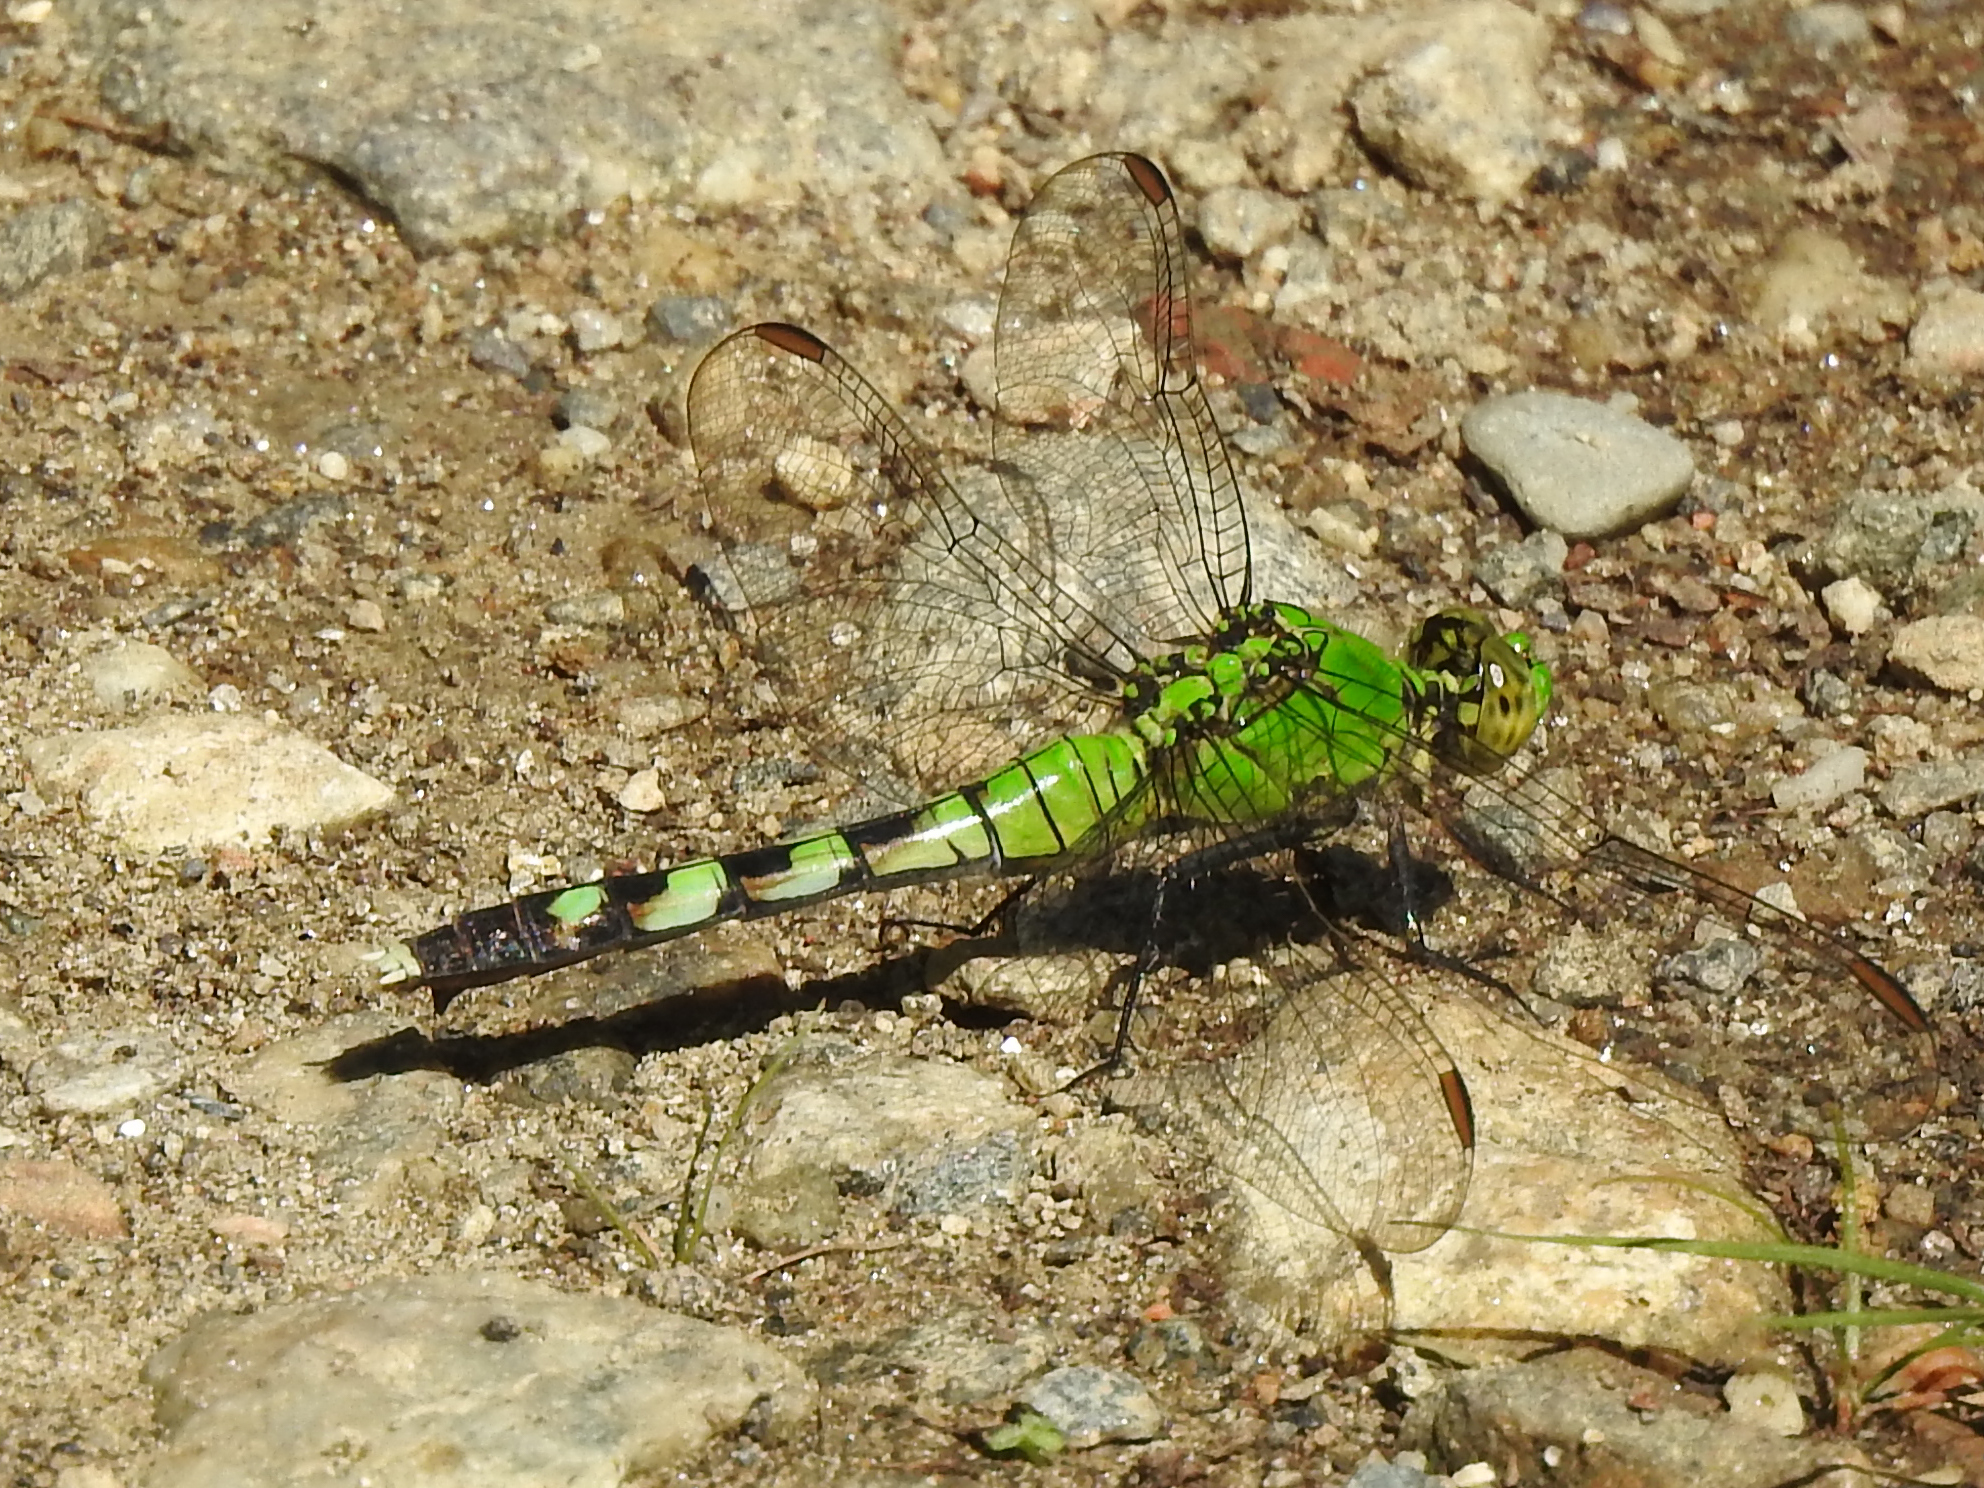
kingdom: Animalia
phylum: Arthropoda
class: Insecta
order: Odonata
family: Libellulidae
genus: Erythemis
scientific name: Erythemis simplicicollis
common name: Eastern pondhawk
